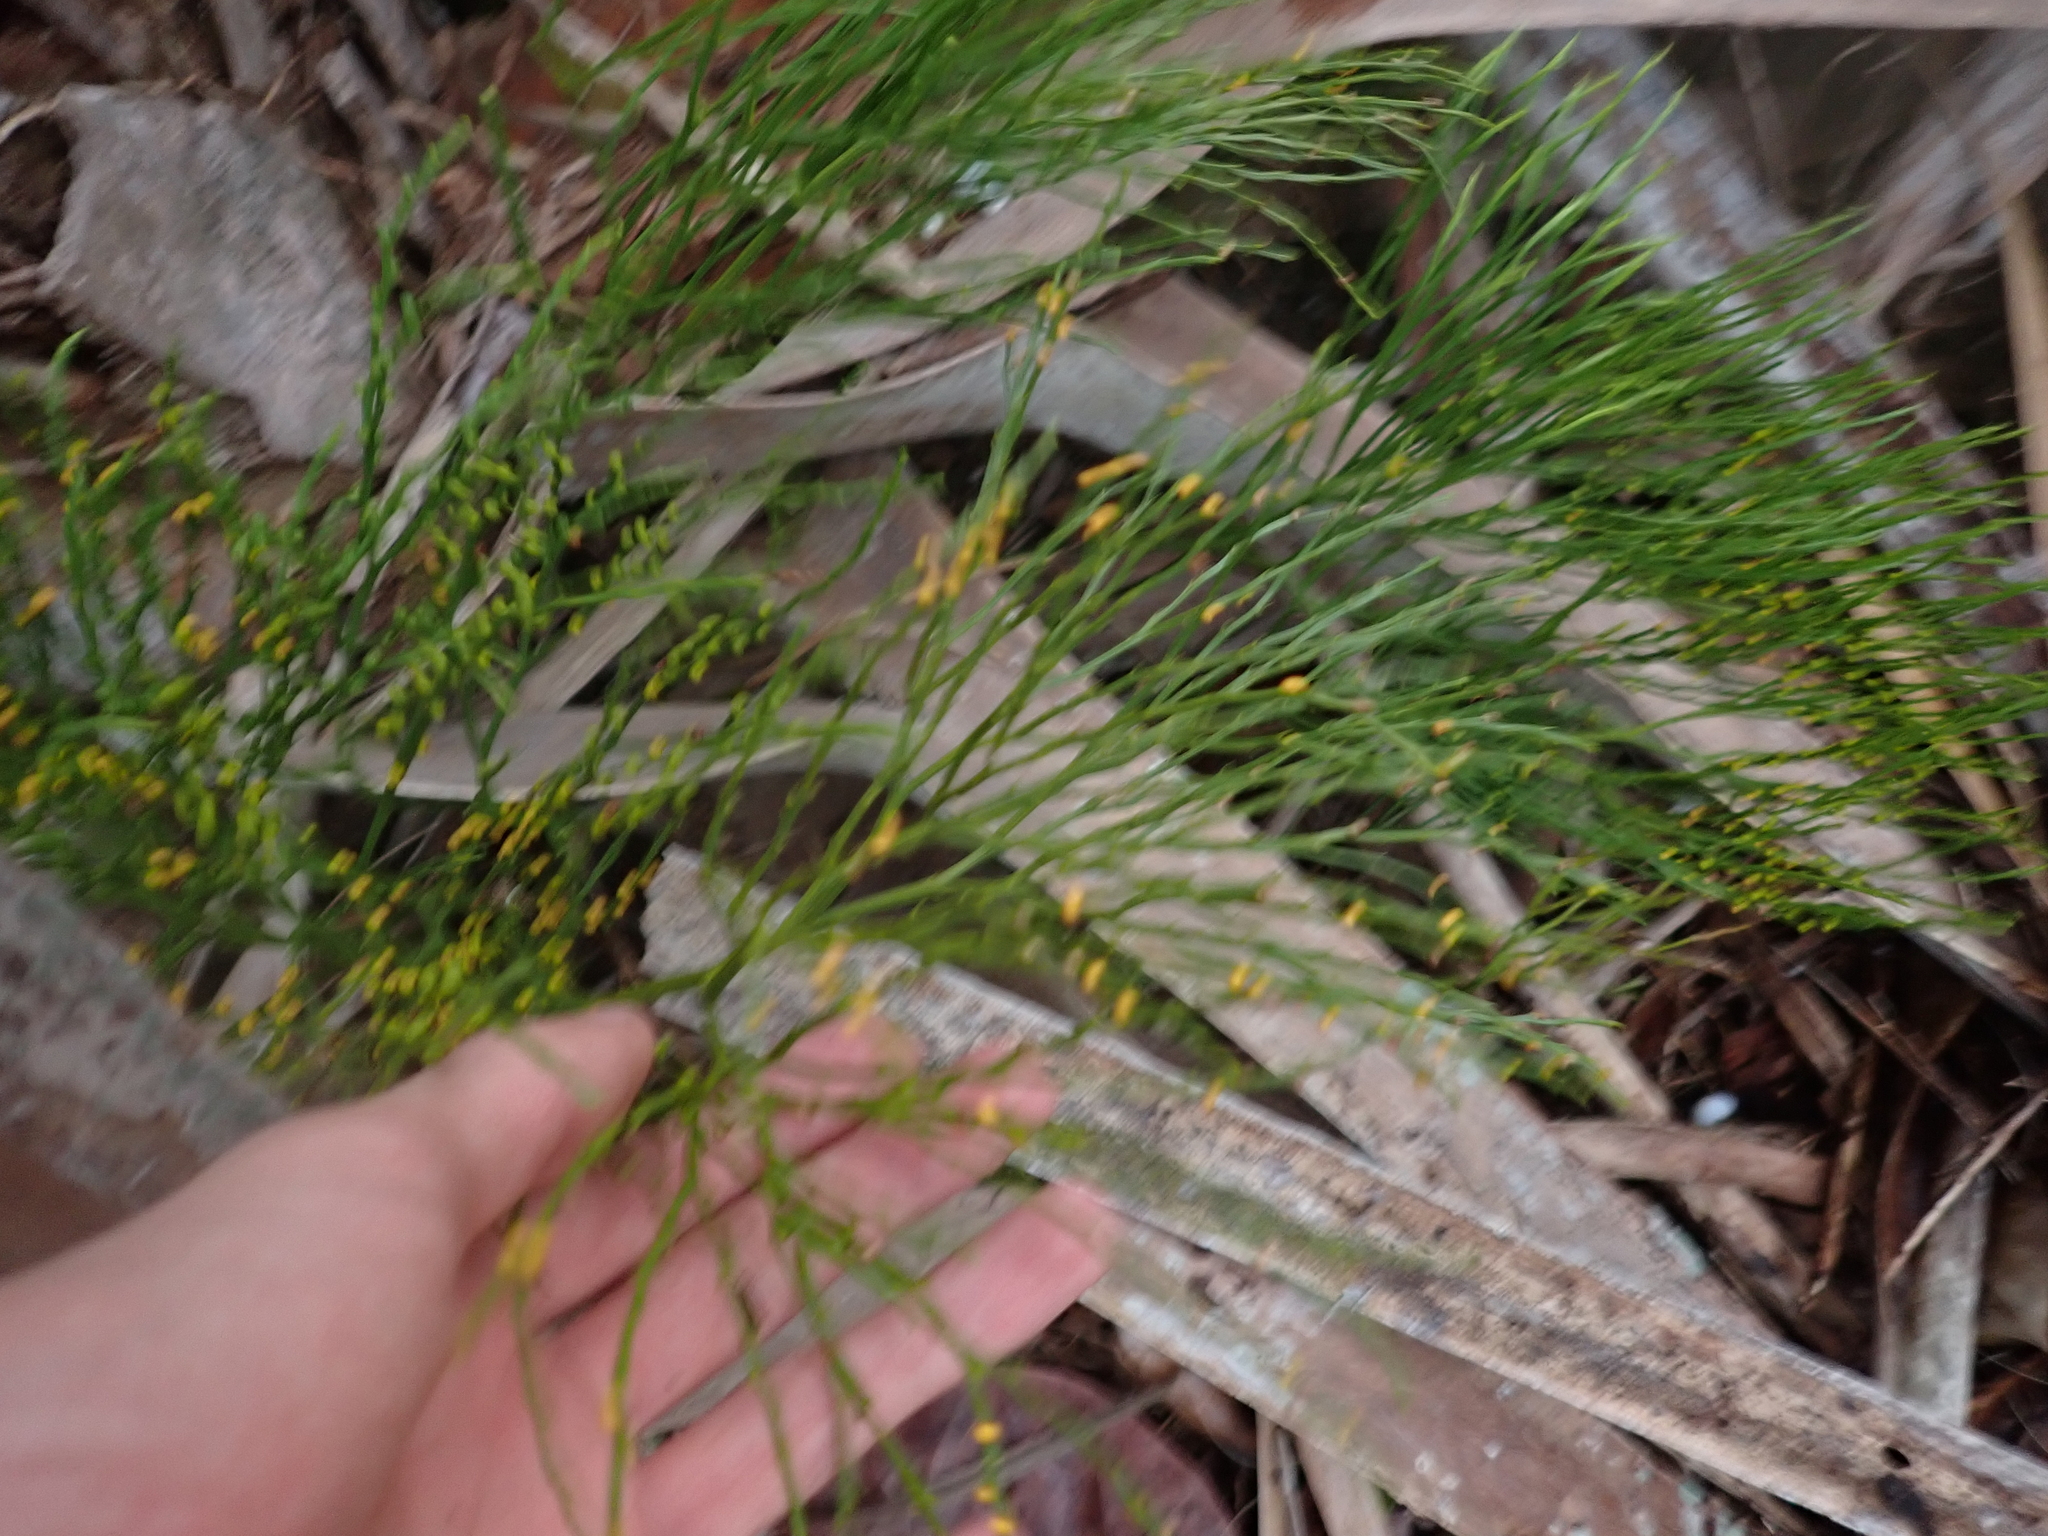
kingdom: Plantae
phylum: Tracheophyta
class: Polypodiopsida
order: Psilotales
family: Psilotaceae
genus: Psilotum
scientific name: Psilotum nudum
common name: Skeleton fork fern
